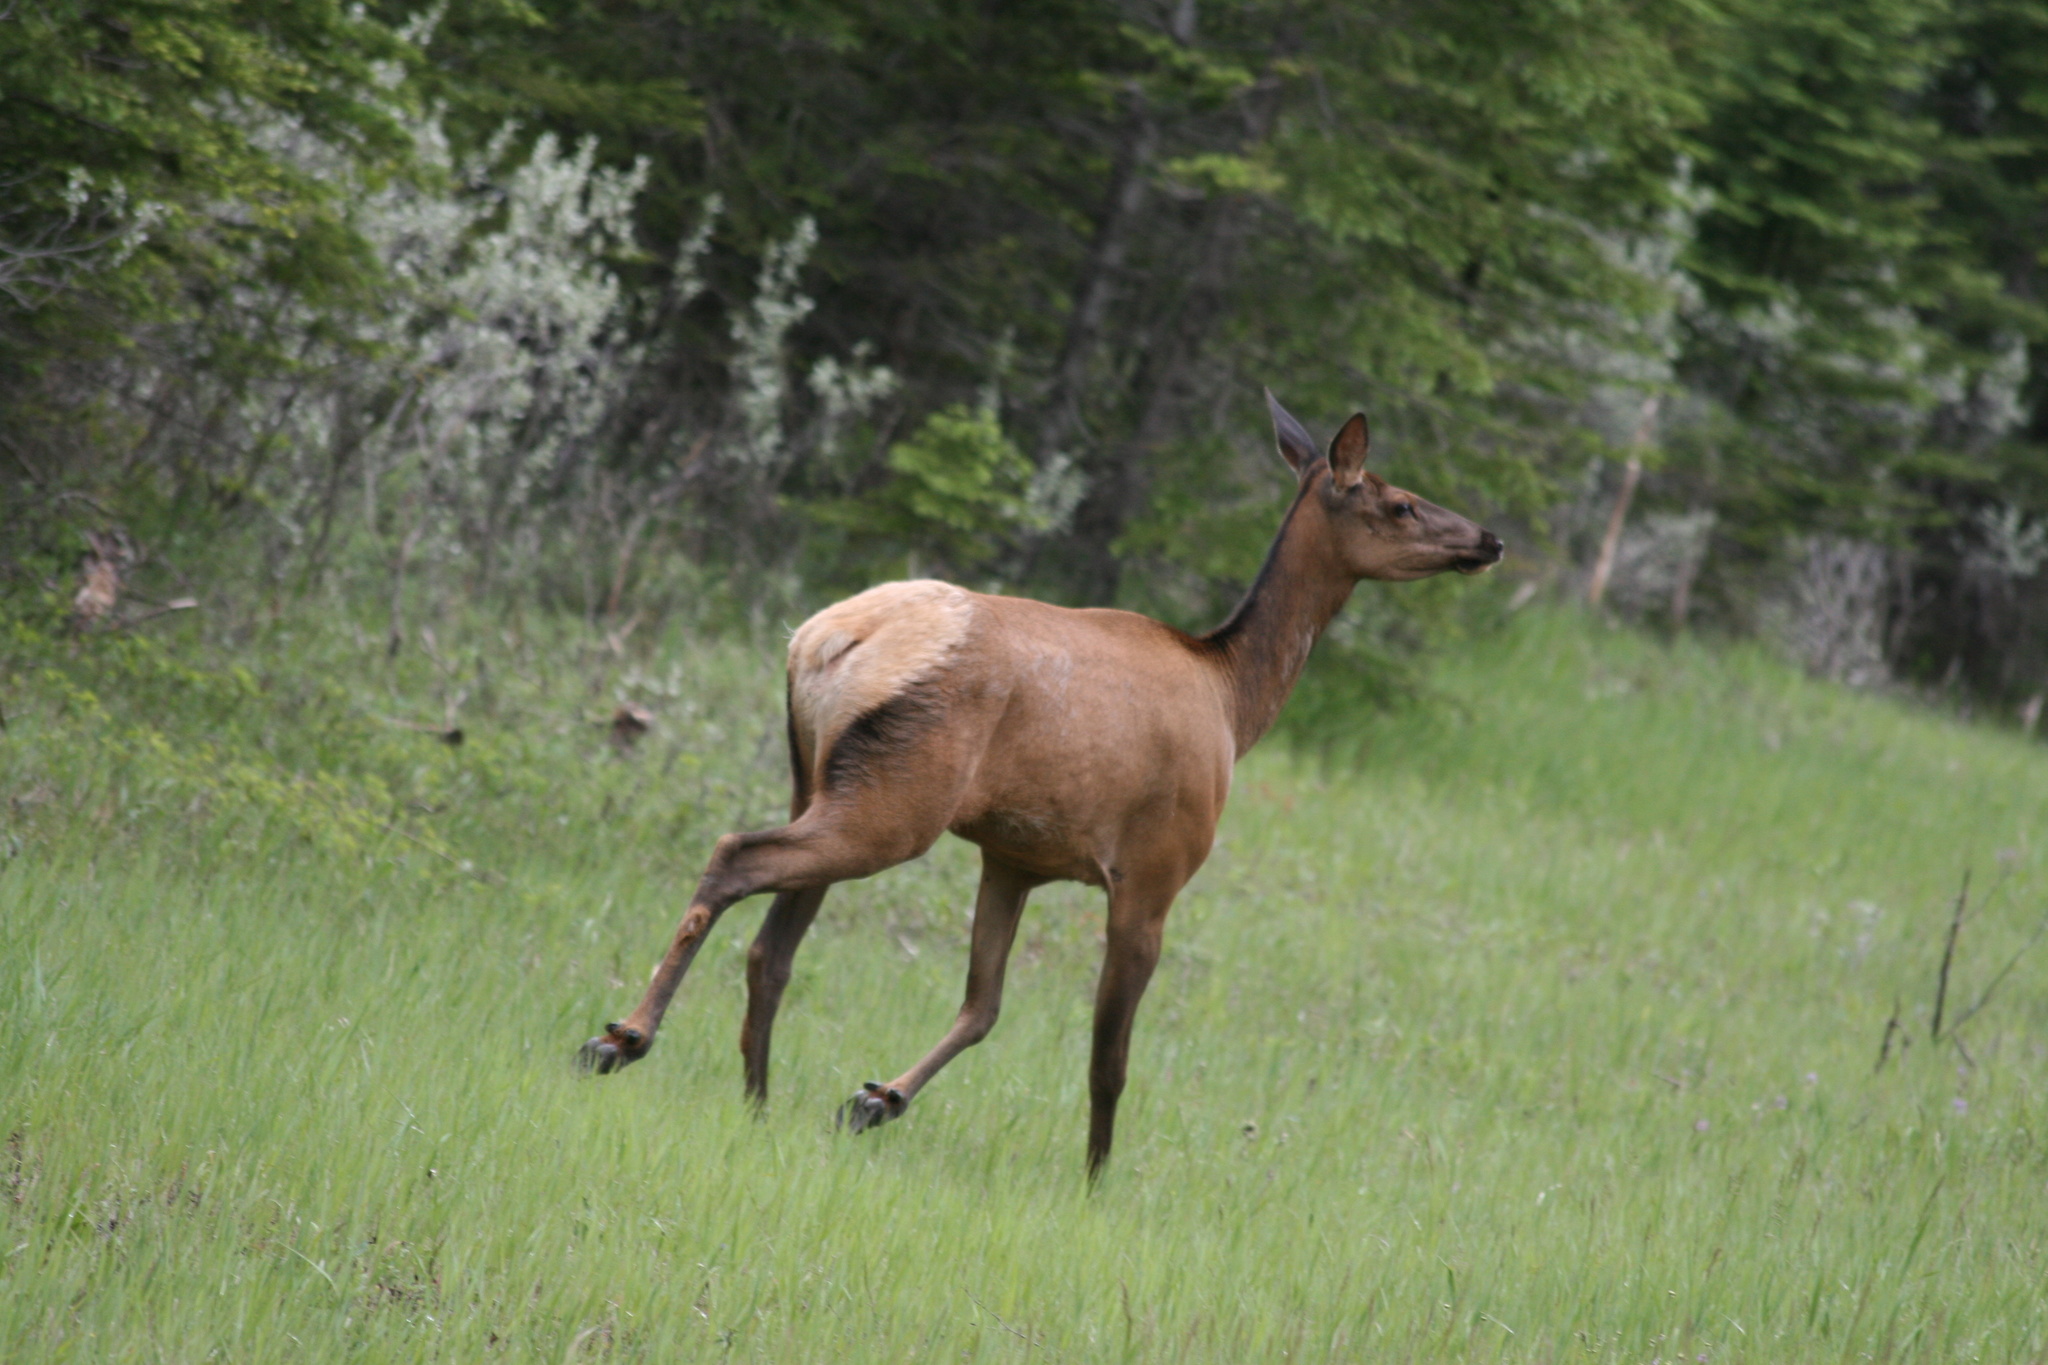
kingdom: Animalia
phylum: Chordata
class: Mammalia
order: Artiodactyla
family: Cervidae
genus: Cervus
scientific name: Cervus elaphus
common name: Red deer
